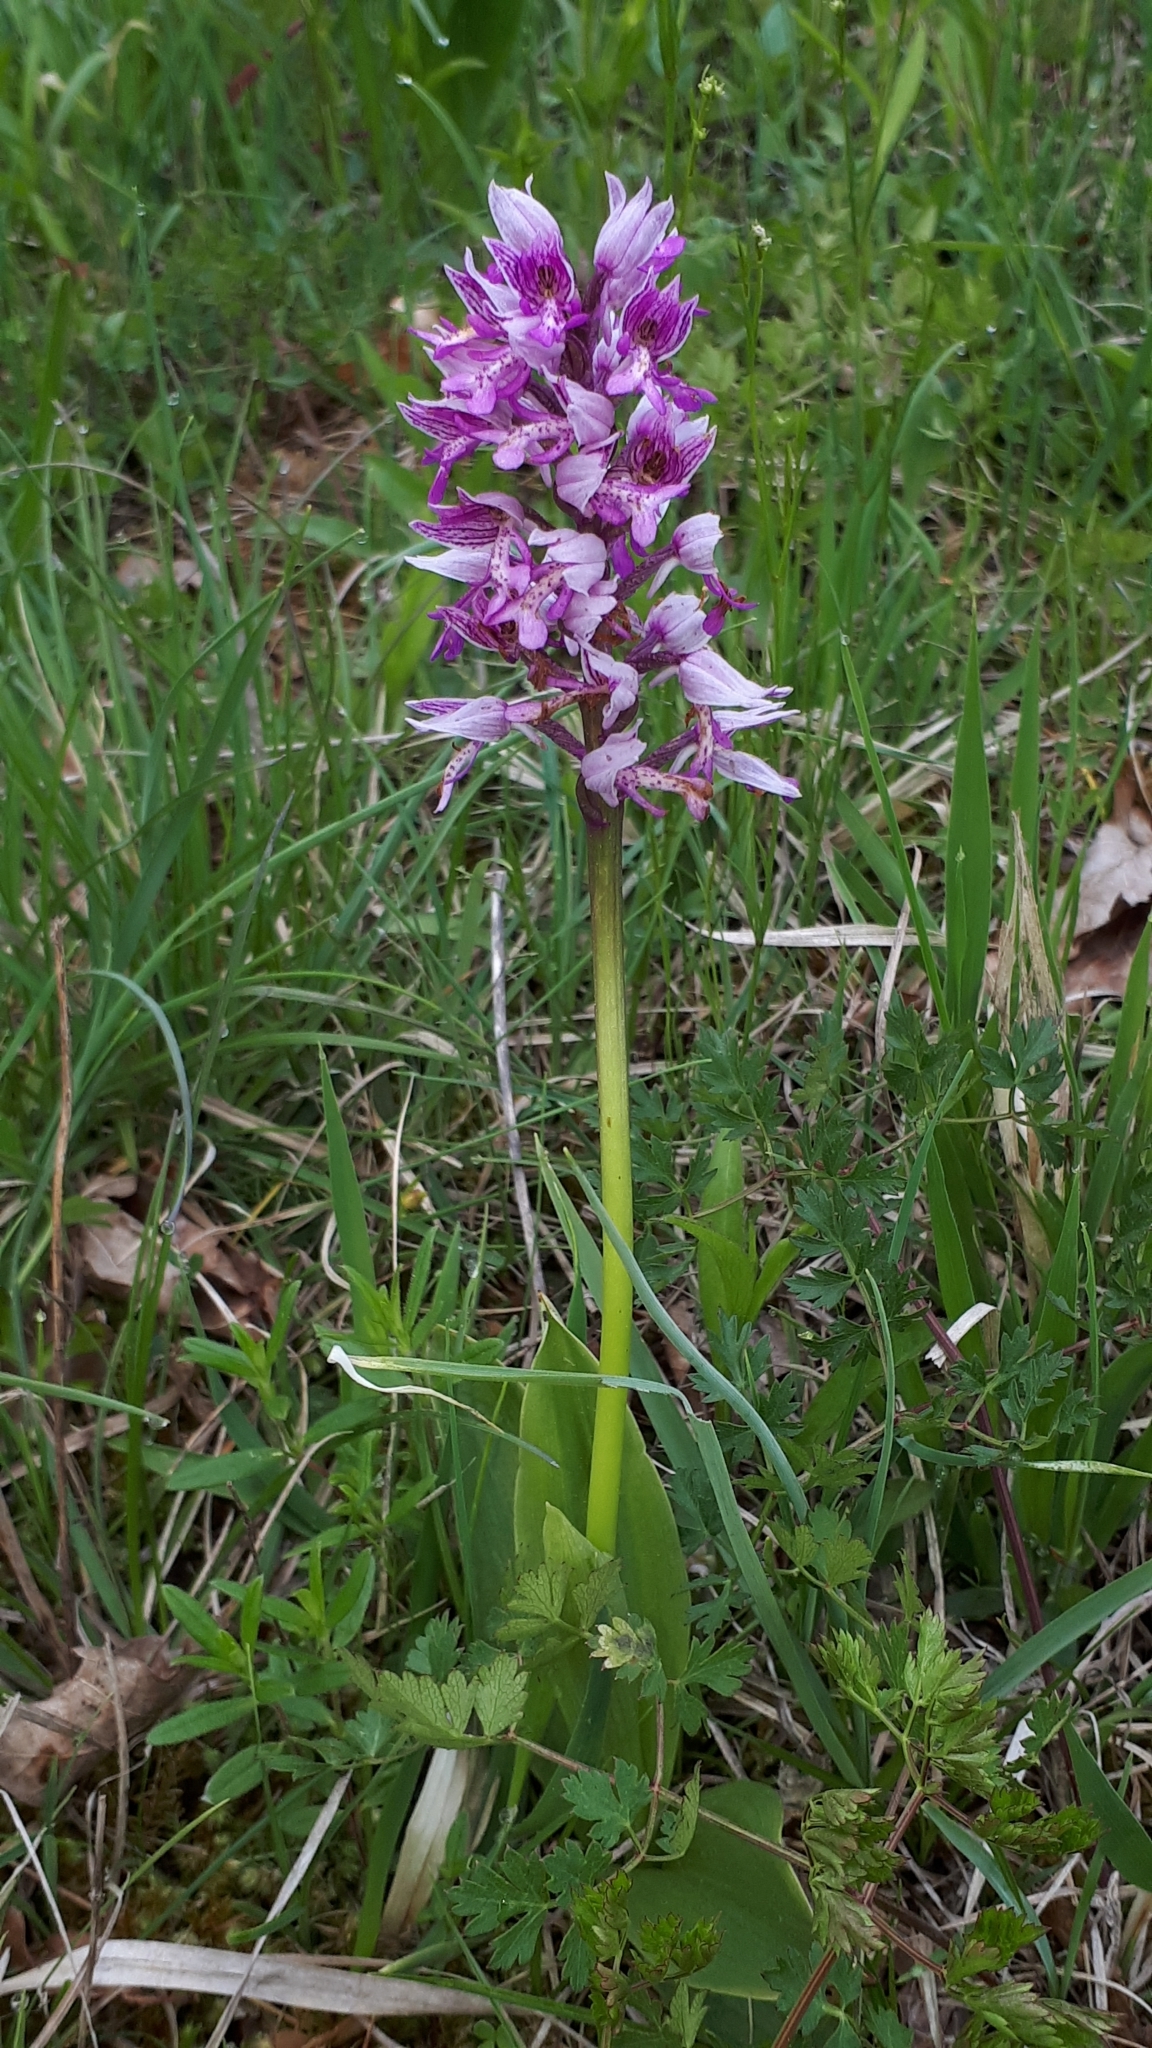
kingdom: Plantae
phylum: Tracheophyta
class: Liliopsida
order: Asparagales
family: Orchidaceae
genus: Orchis
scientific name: Orchis militaris
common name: Military orchid
